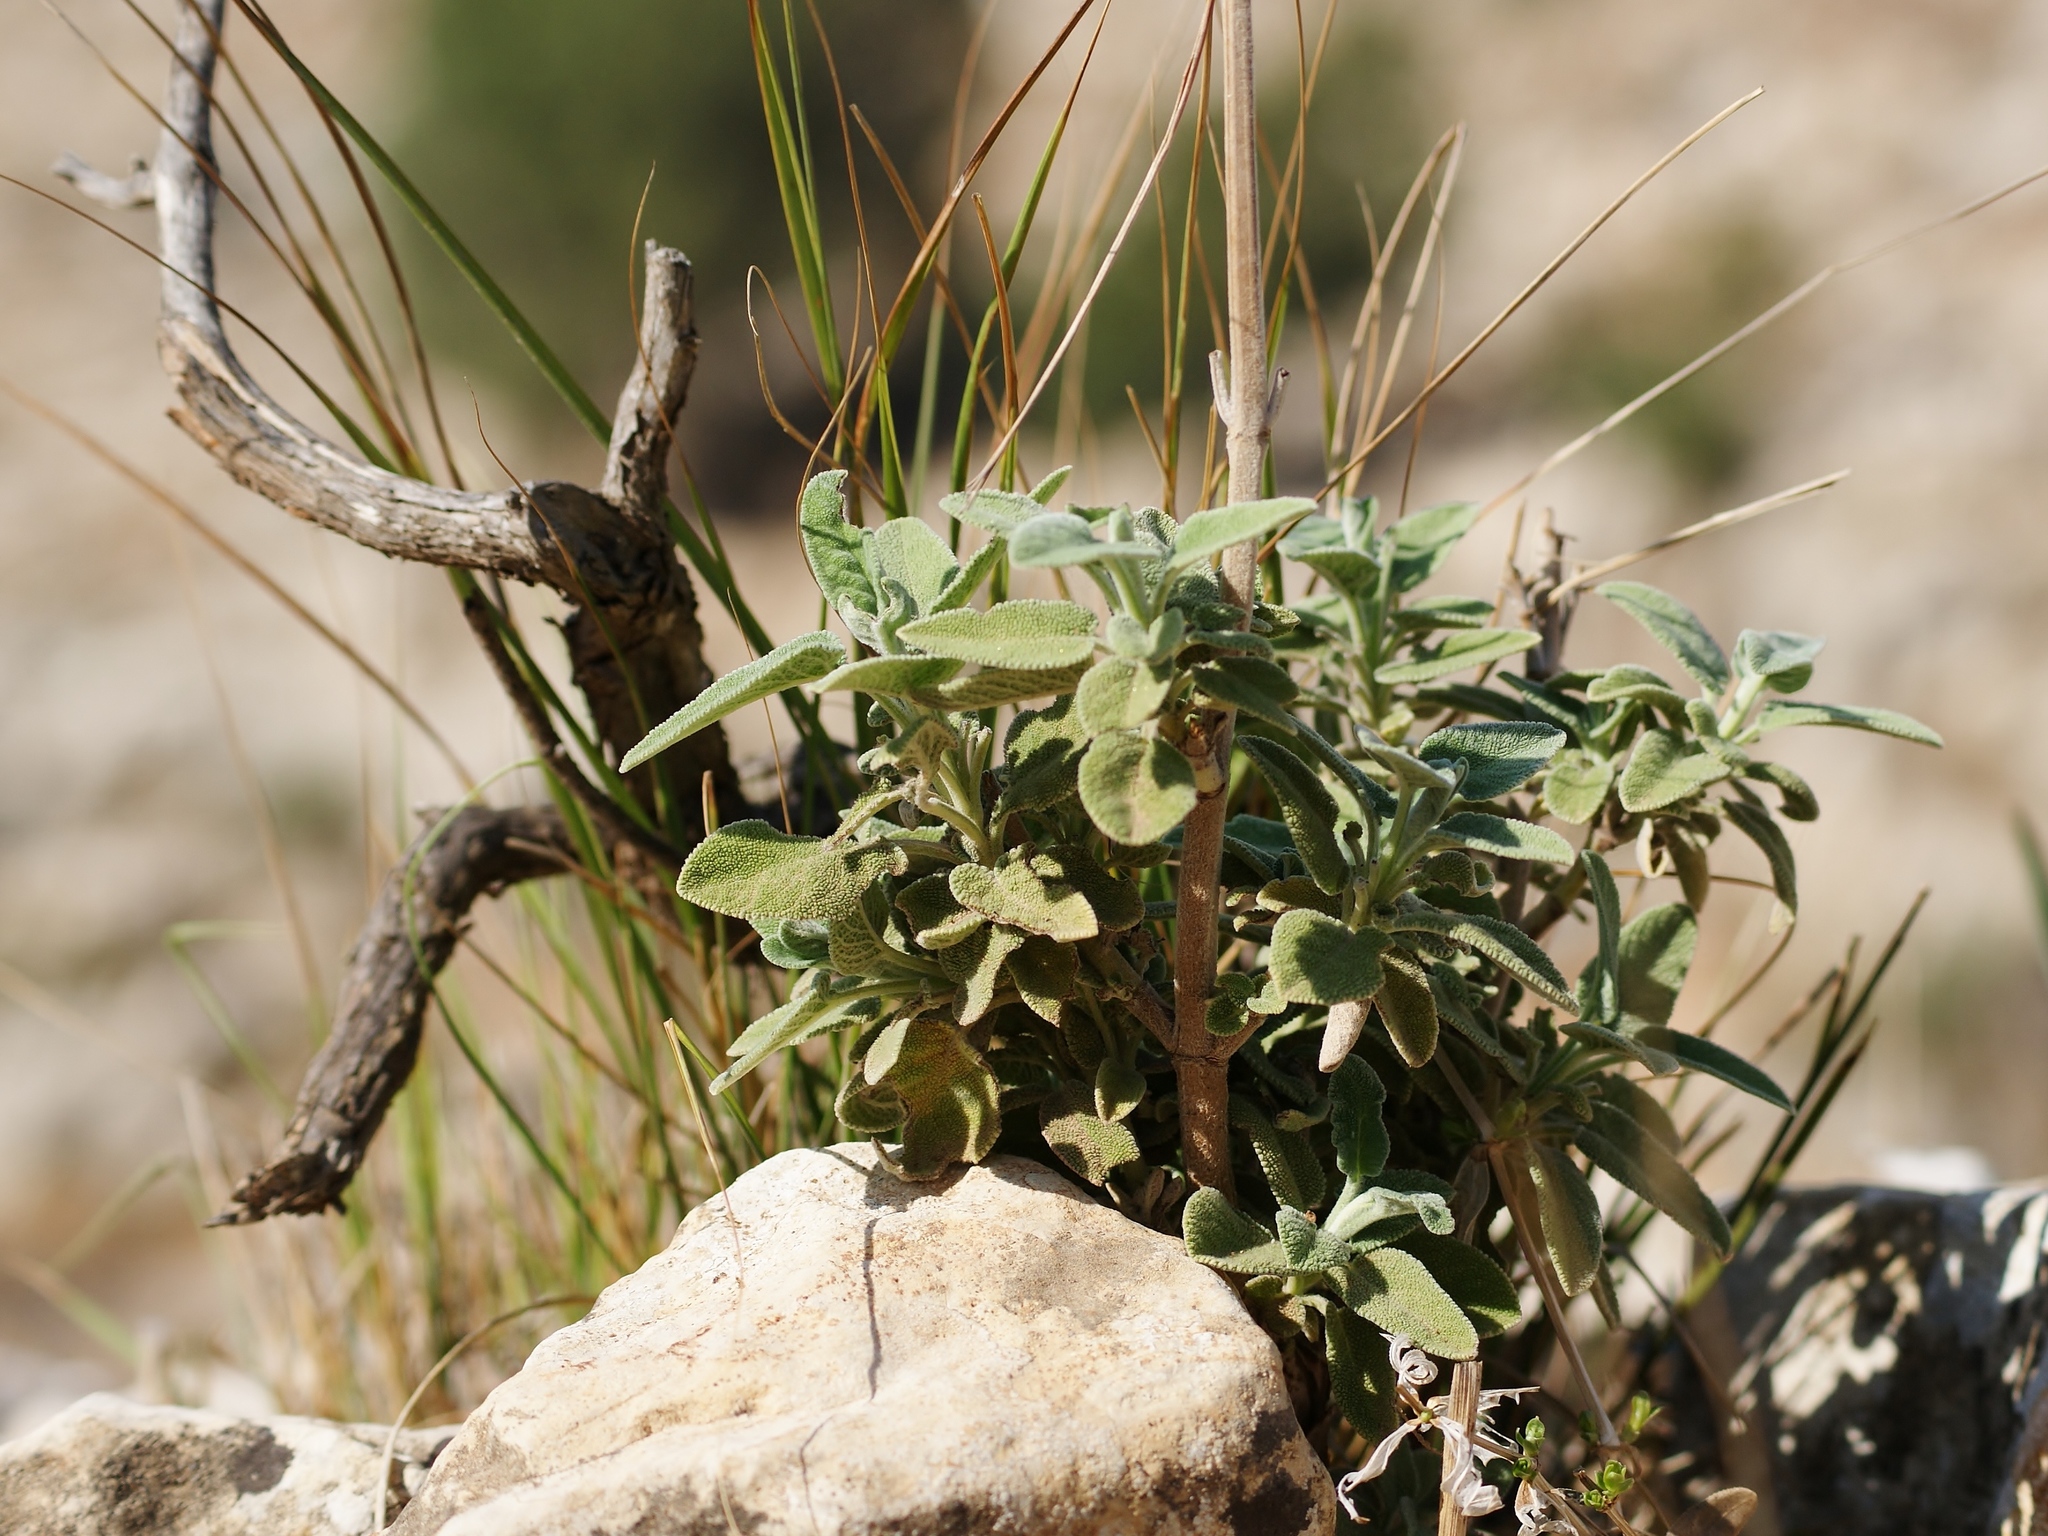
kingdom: Plantae
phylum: Tracheophyta
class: Magnoliopsida
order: Lamiales
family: Lamiaceae
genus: Salvia
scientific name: Salvia fruticosa
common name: Greek sage
